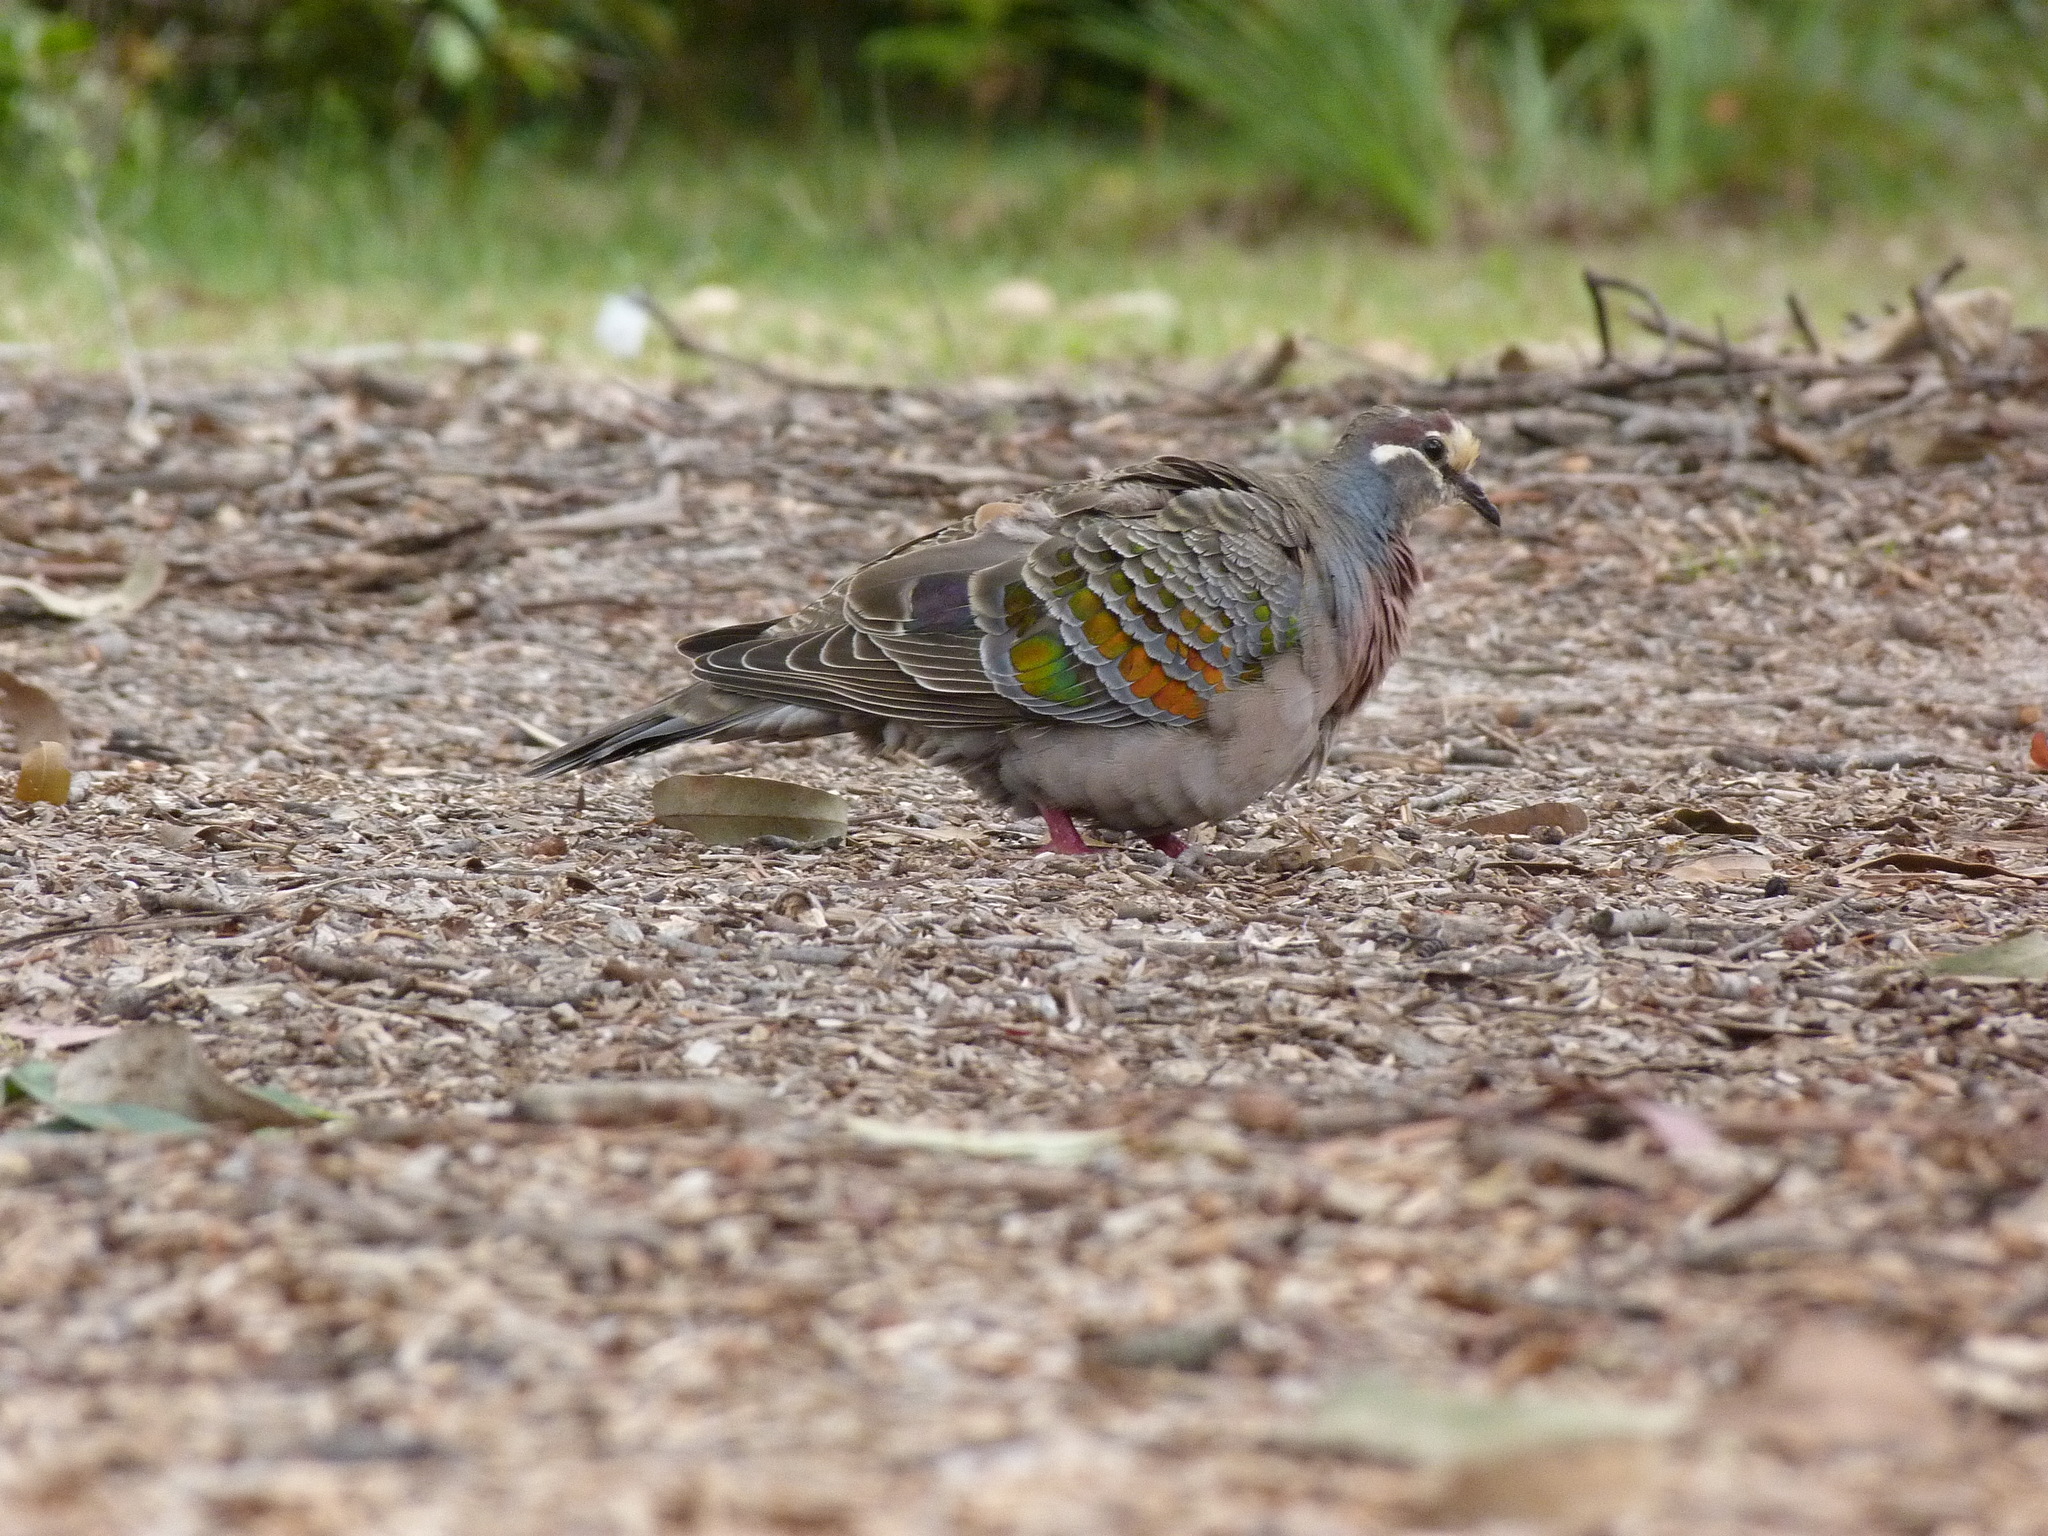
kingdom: Animalia
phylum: Chordata
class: Aves
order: Columbiformes
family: Columbidae
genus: Phaps
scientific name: Phaps chalcoptera
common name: Common bronzewing
